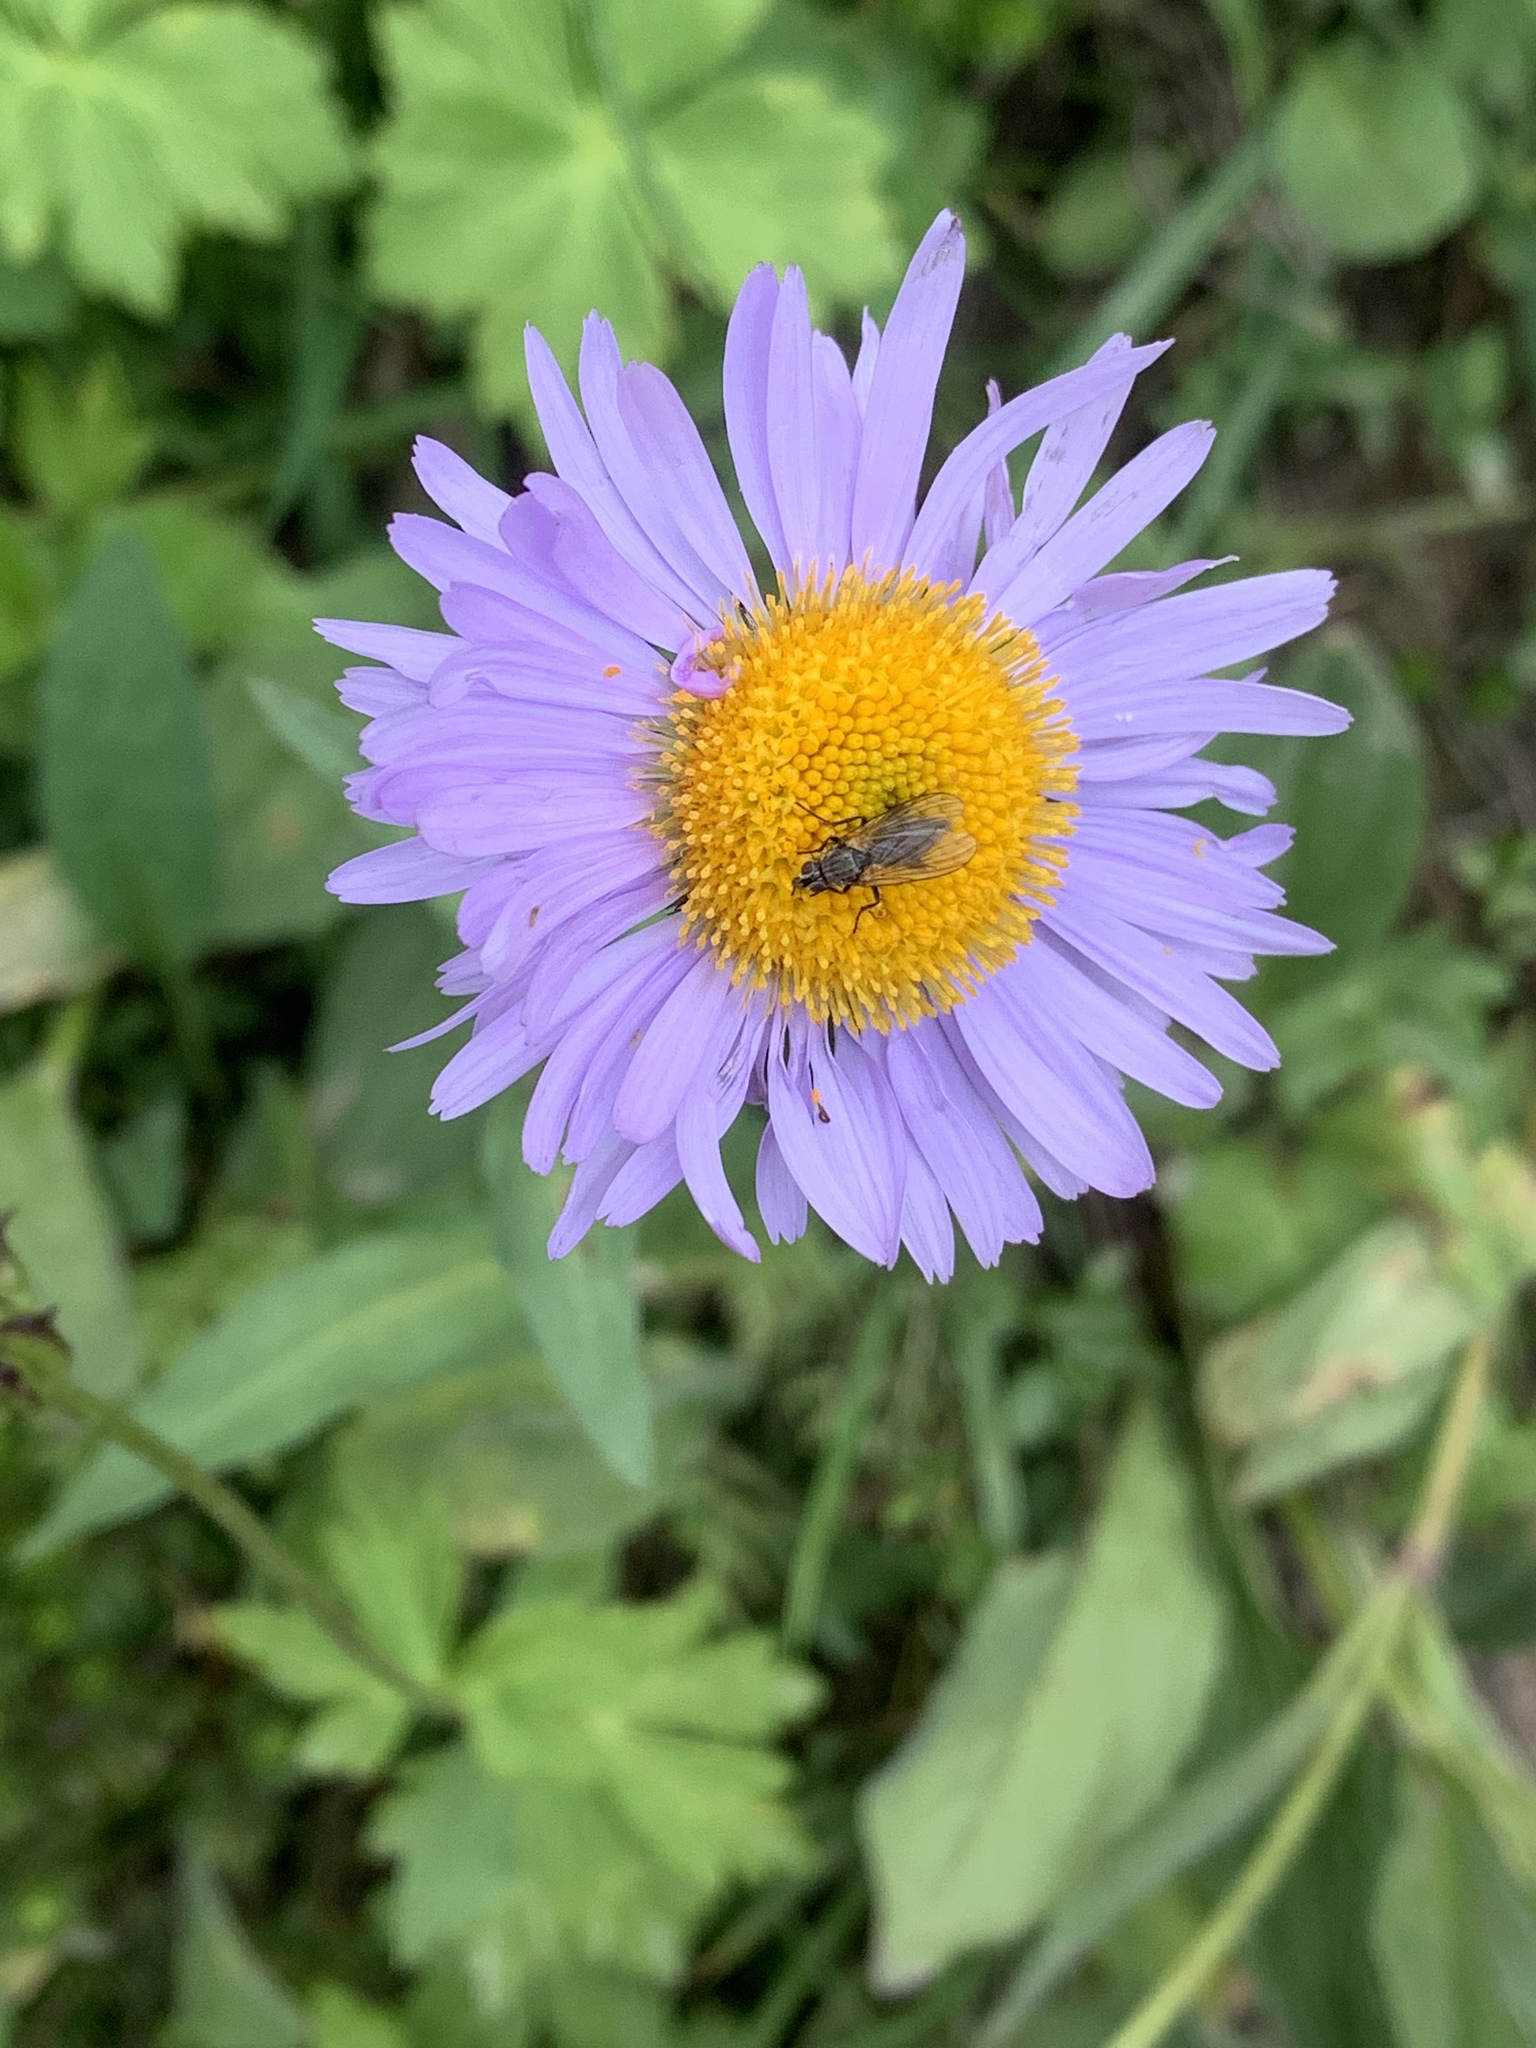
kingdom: Plantae
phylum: Tracheophyta
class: Magnoliopsida
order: Asterales
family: Asteraceae
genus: Erigeron
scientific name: Erigeron glacialis
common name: Subalpine fleabane
